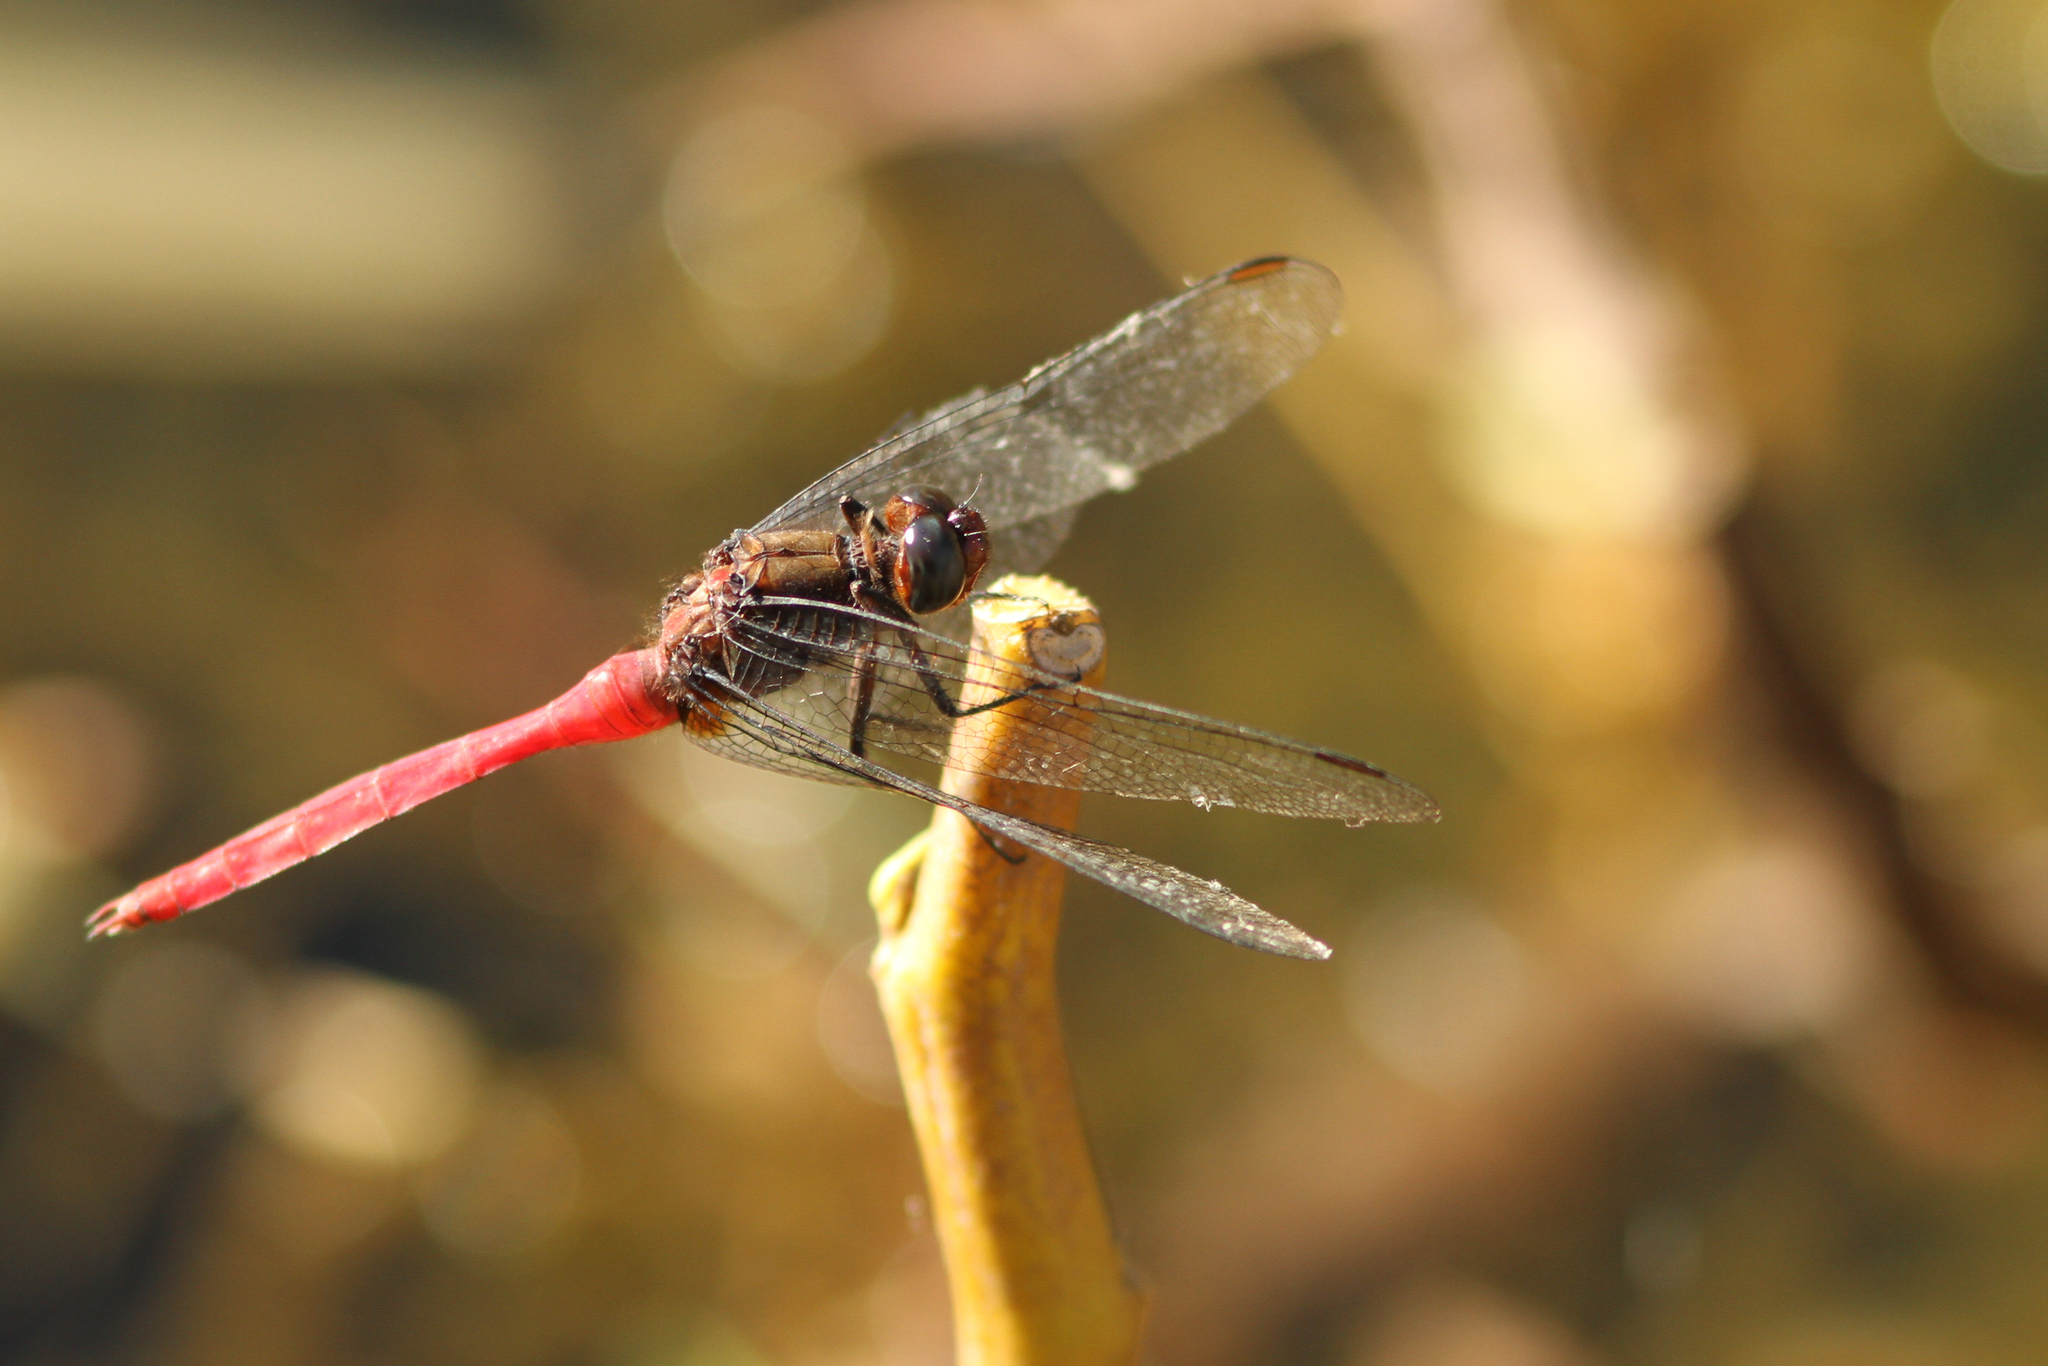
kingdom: Animalia
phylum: Arthropoda
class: Insecta
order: Odonata
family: Libellulidae
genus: Orthetrum
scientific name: Orthetrum villosovittatum
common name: Firery skimmer
